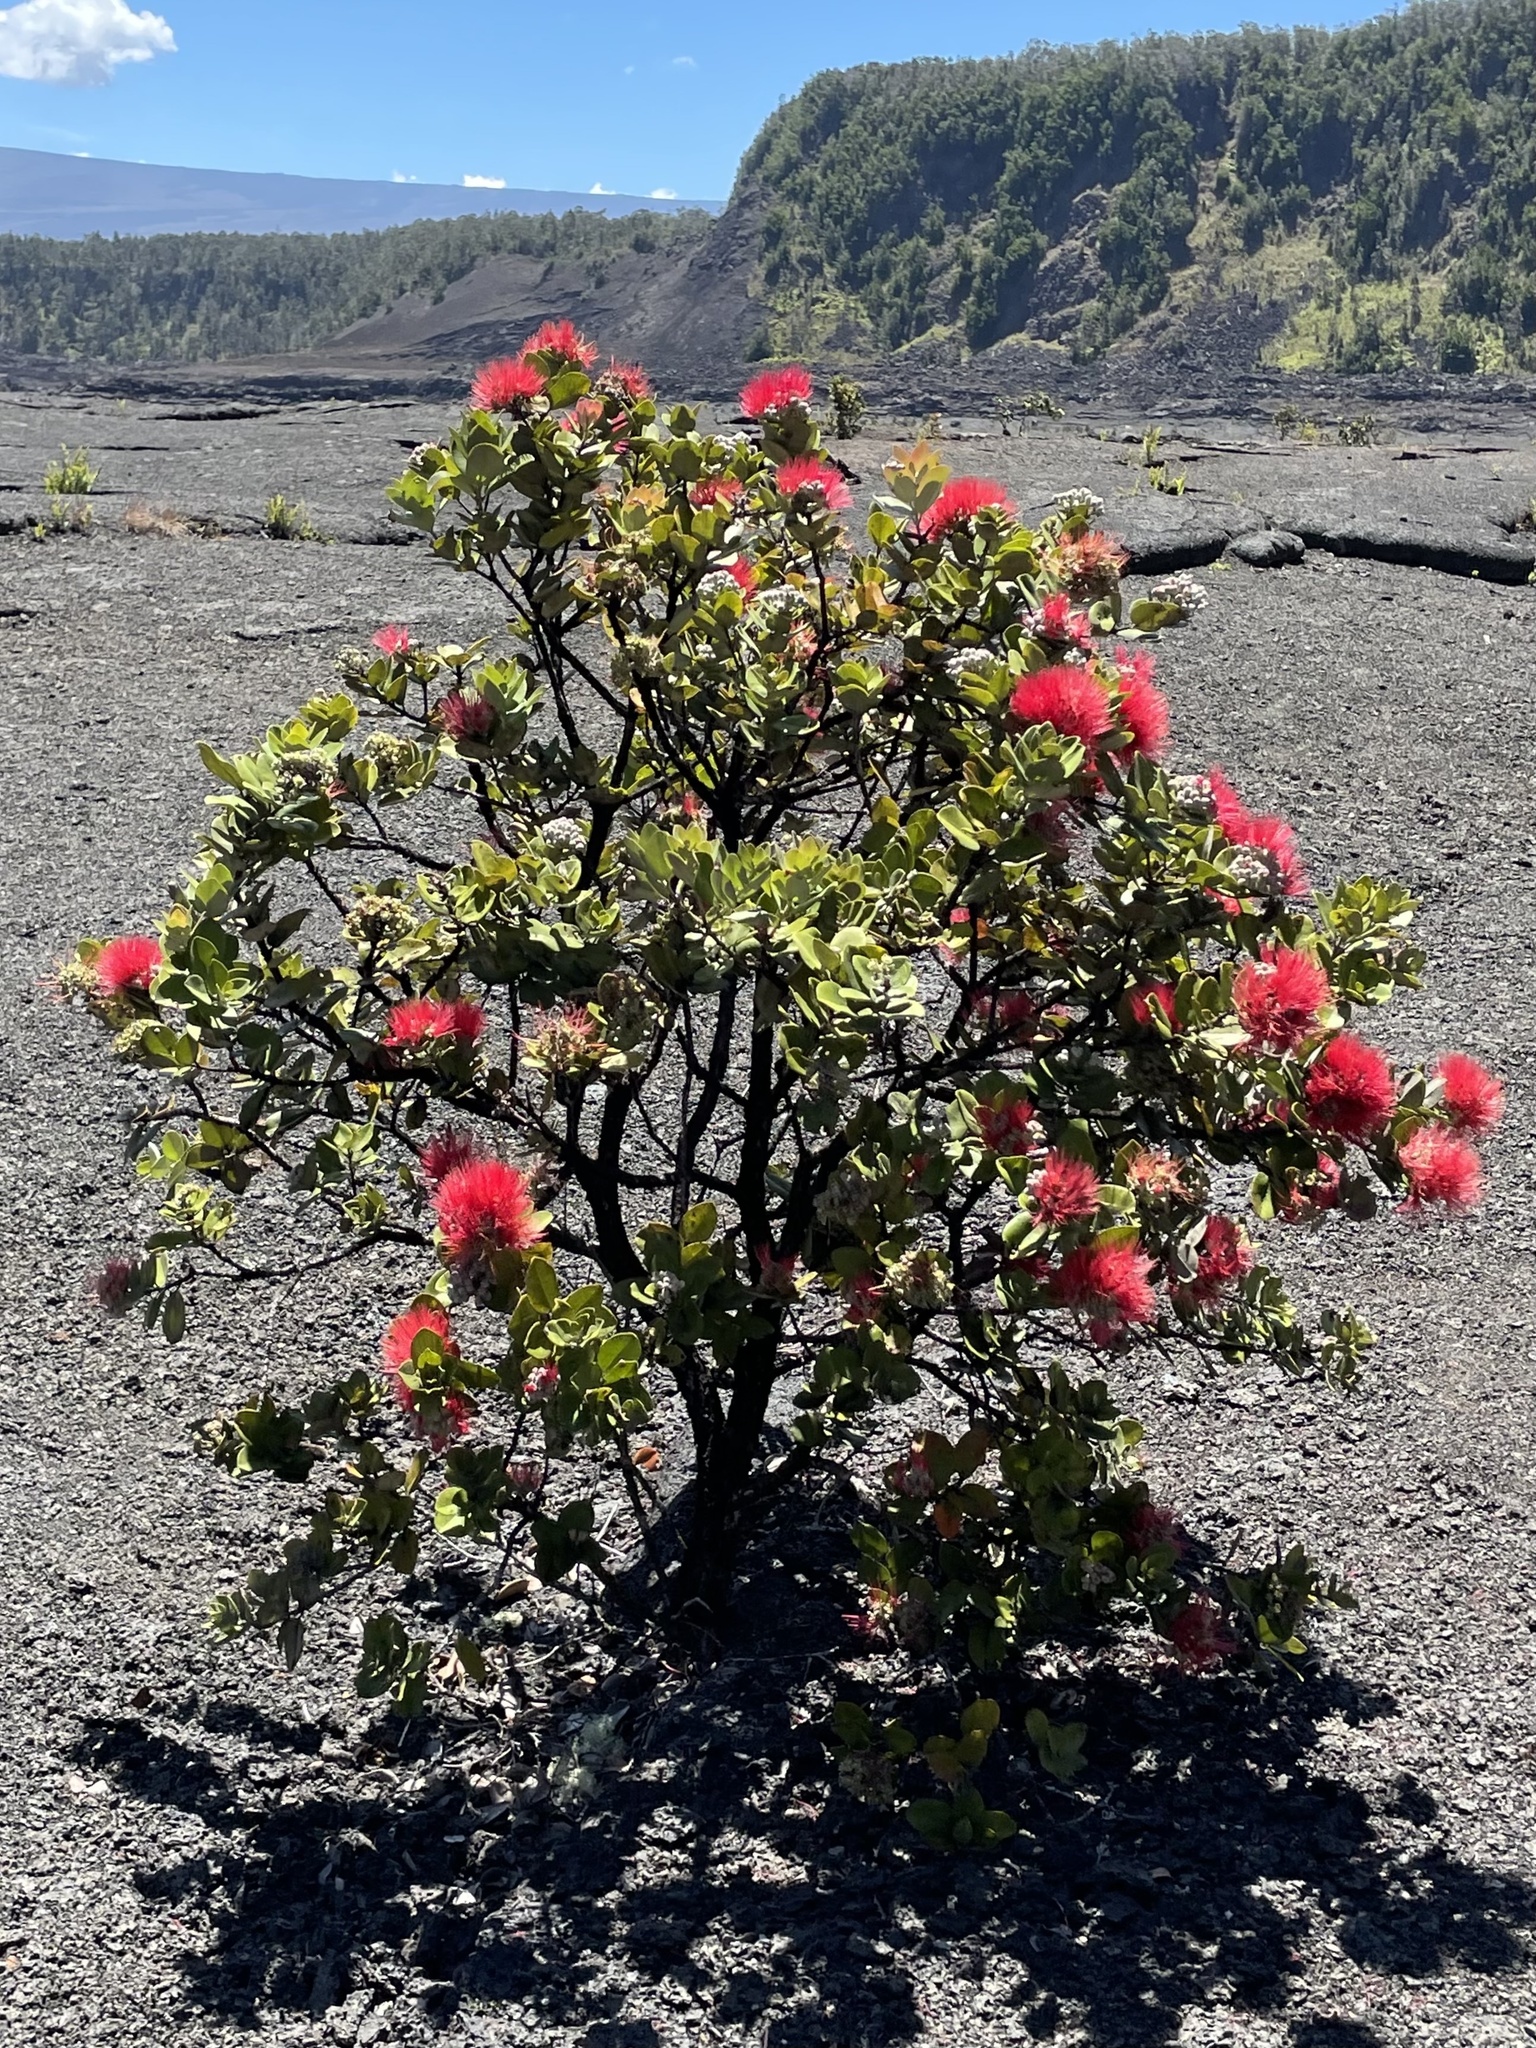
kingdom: Plantae
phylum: Tracheophyta
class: Magnoliopsida
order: Myrtales
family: Myrtaceae
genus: Metrosideros
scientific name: Metrosideros polymorpha
